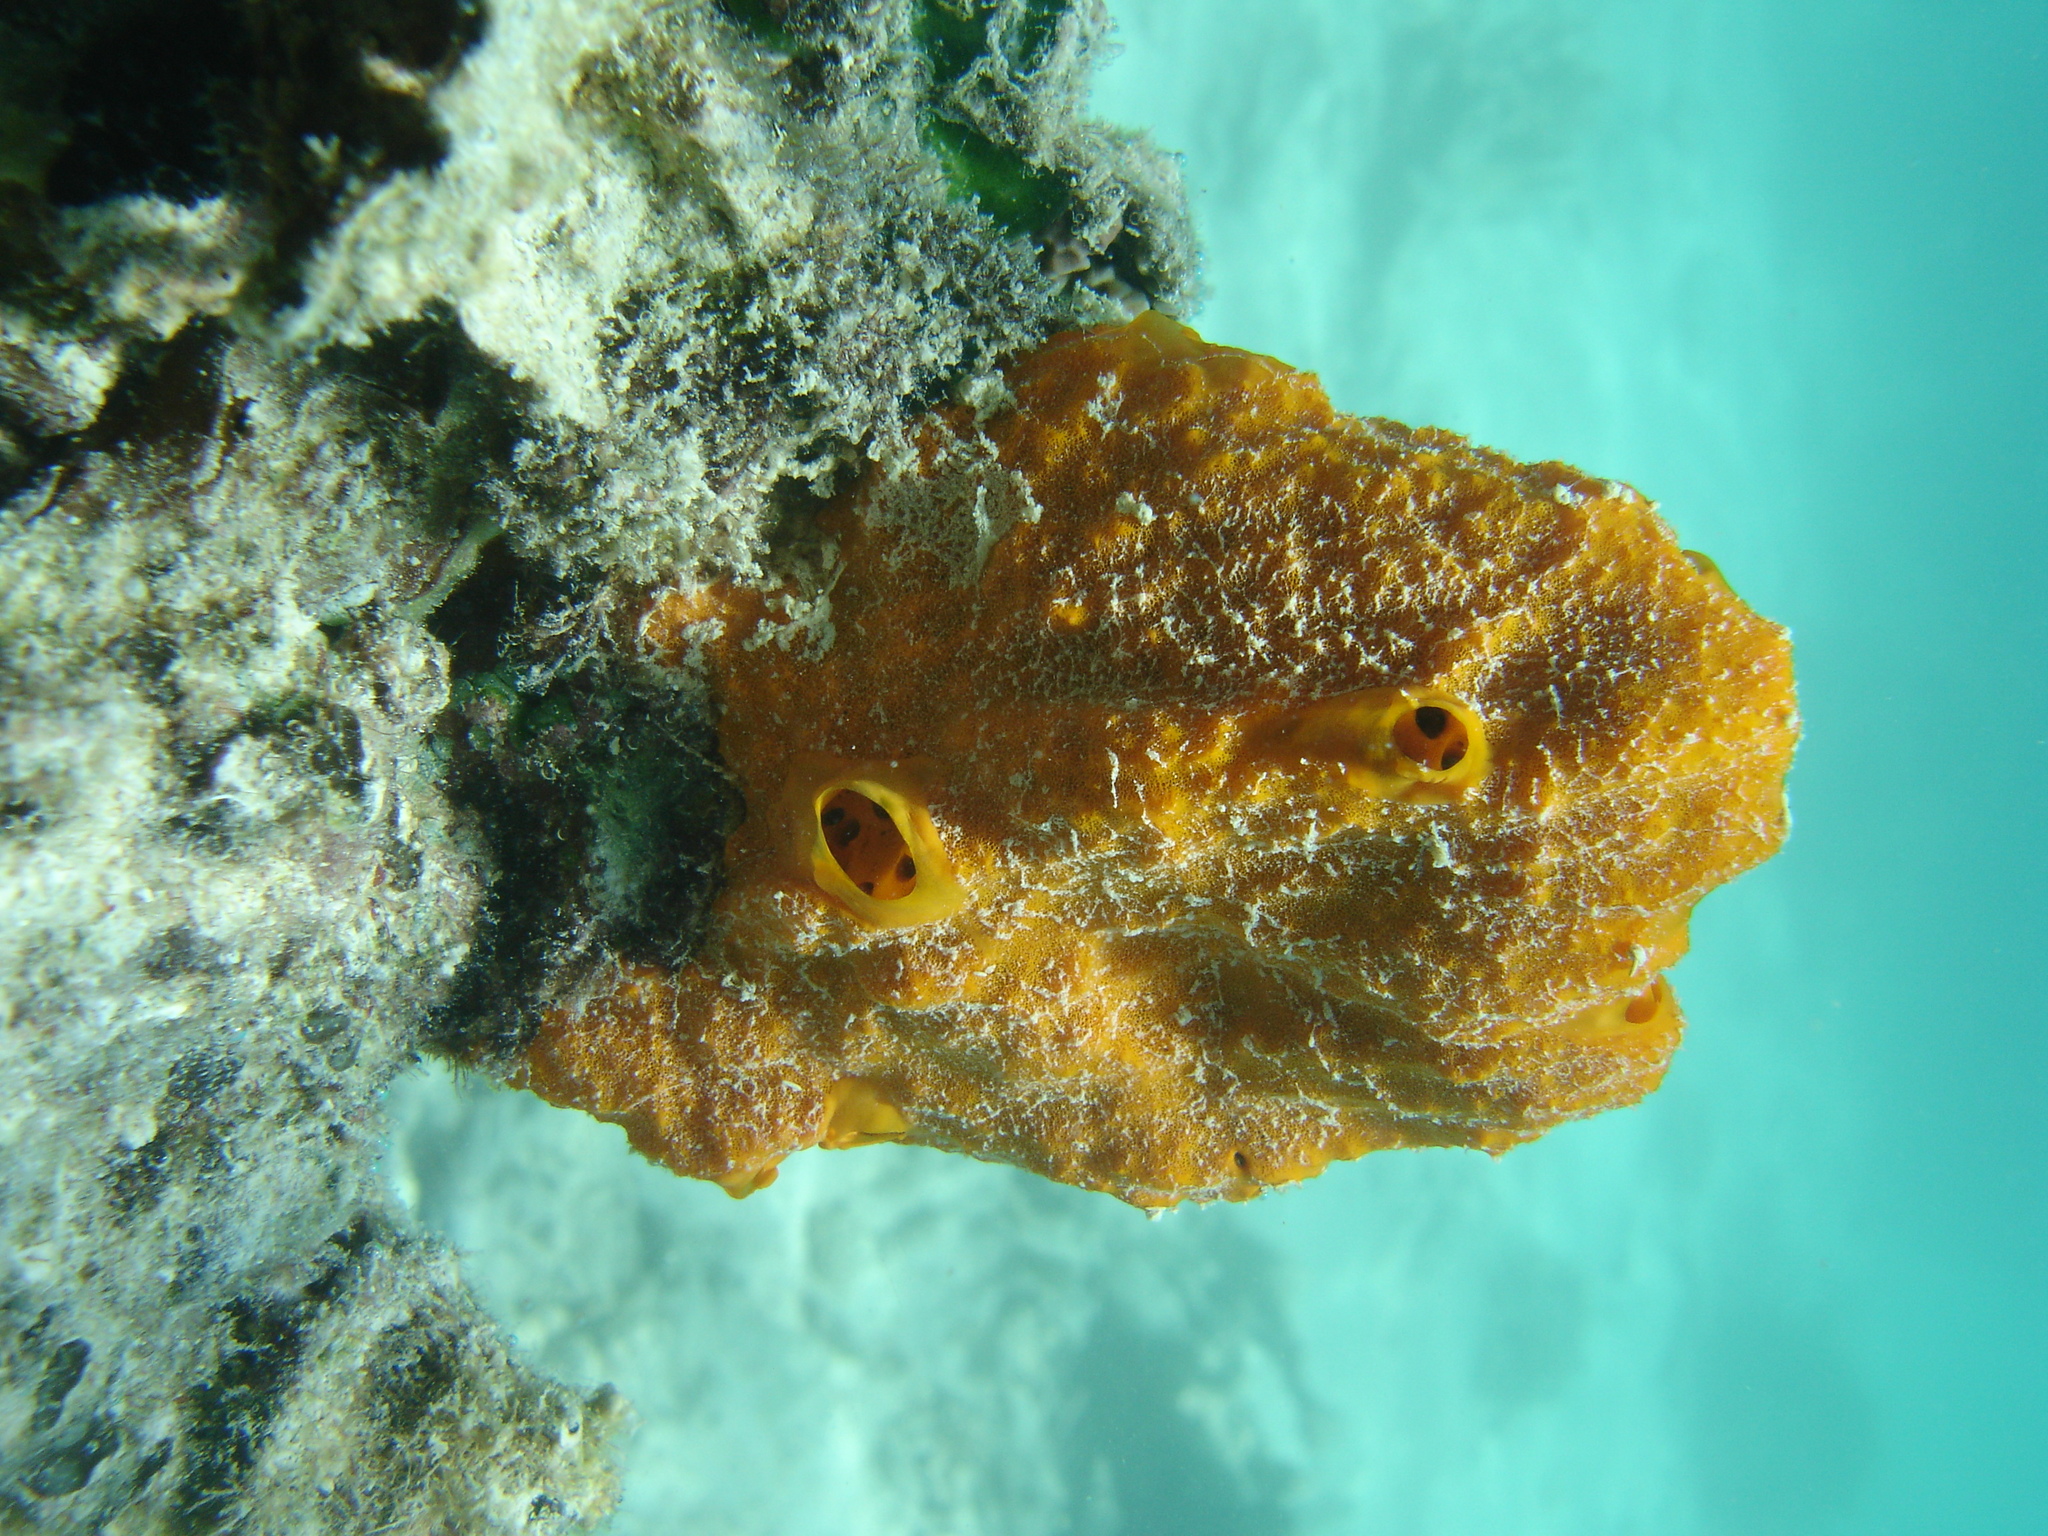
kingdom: Animalia
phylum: Porifera
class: Demospongiae
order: Scopalinida
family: Scopalinidae
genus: Stylissa
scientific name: Stylissa massa
